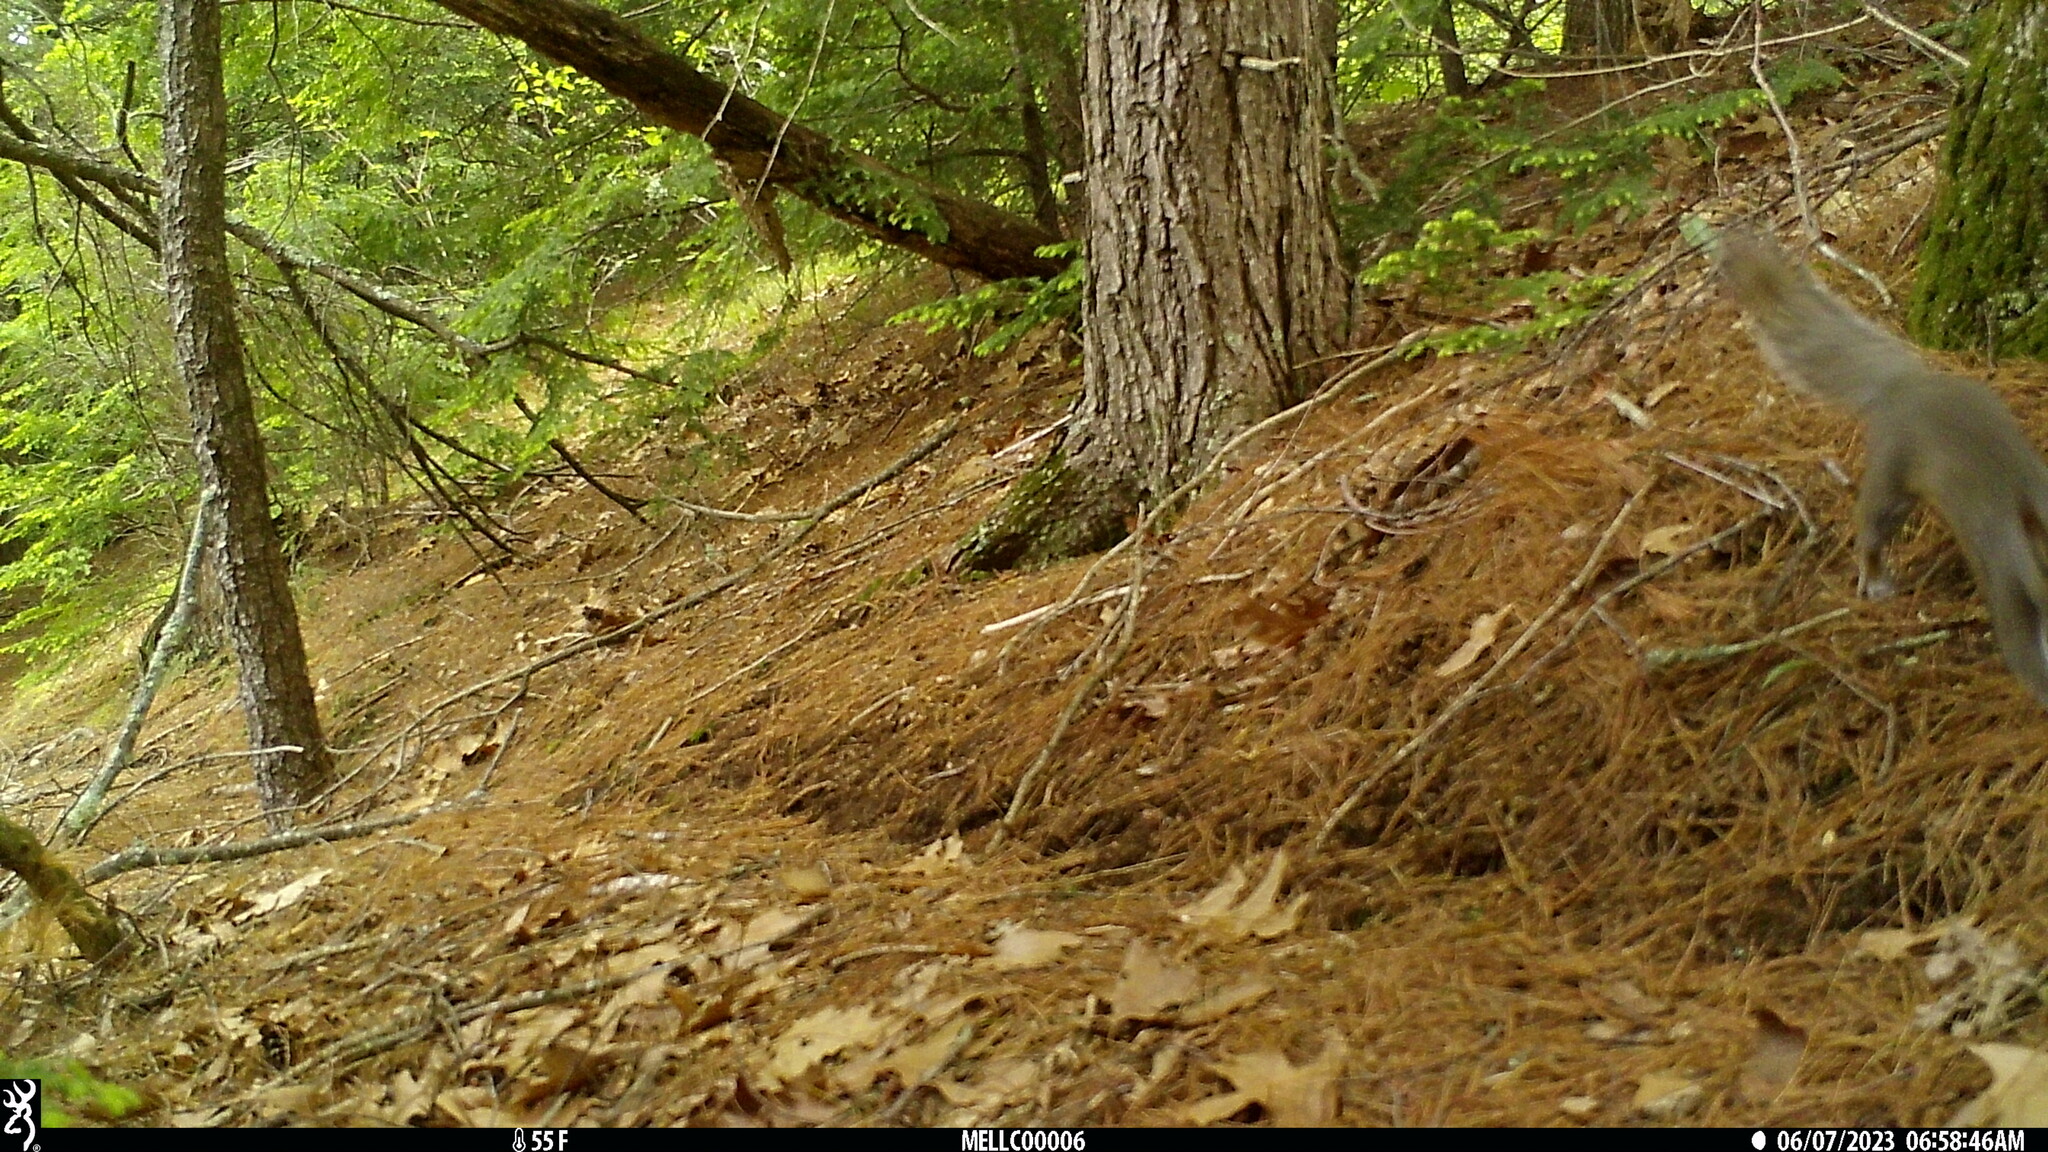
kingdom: Animalia
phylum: Chordata
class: Mammalia
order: Rodentia
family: Sciuridae
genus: Sciurus
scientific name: Sciurus carolinensis
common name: Eastern gray squirrel
